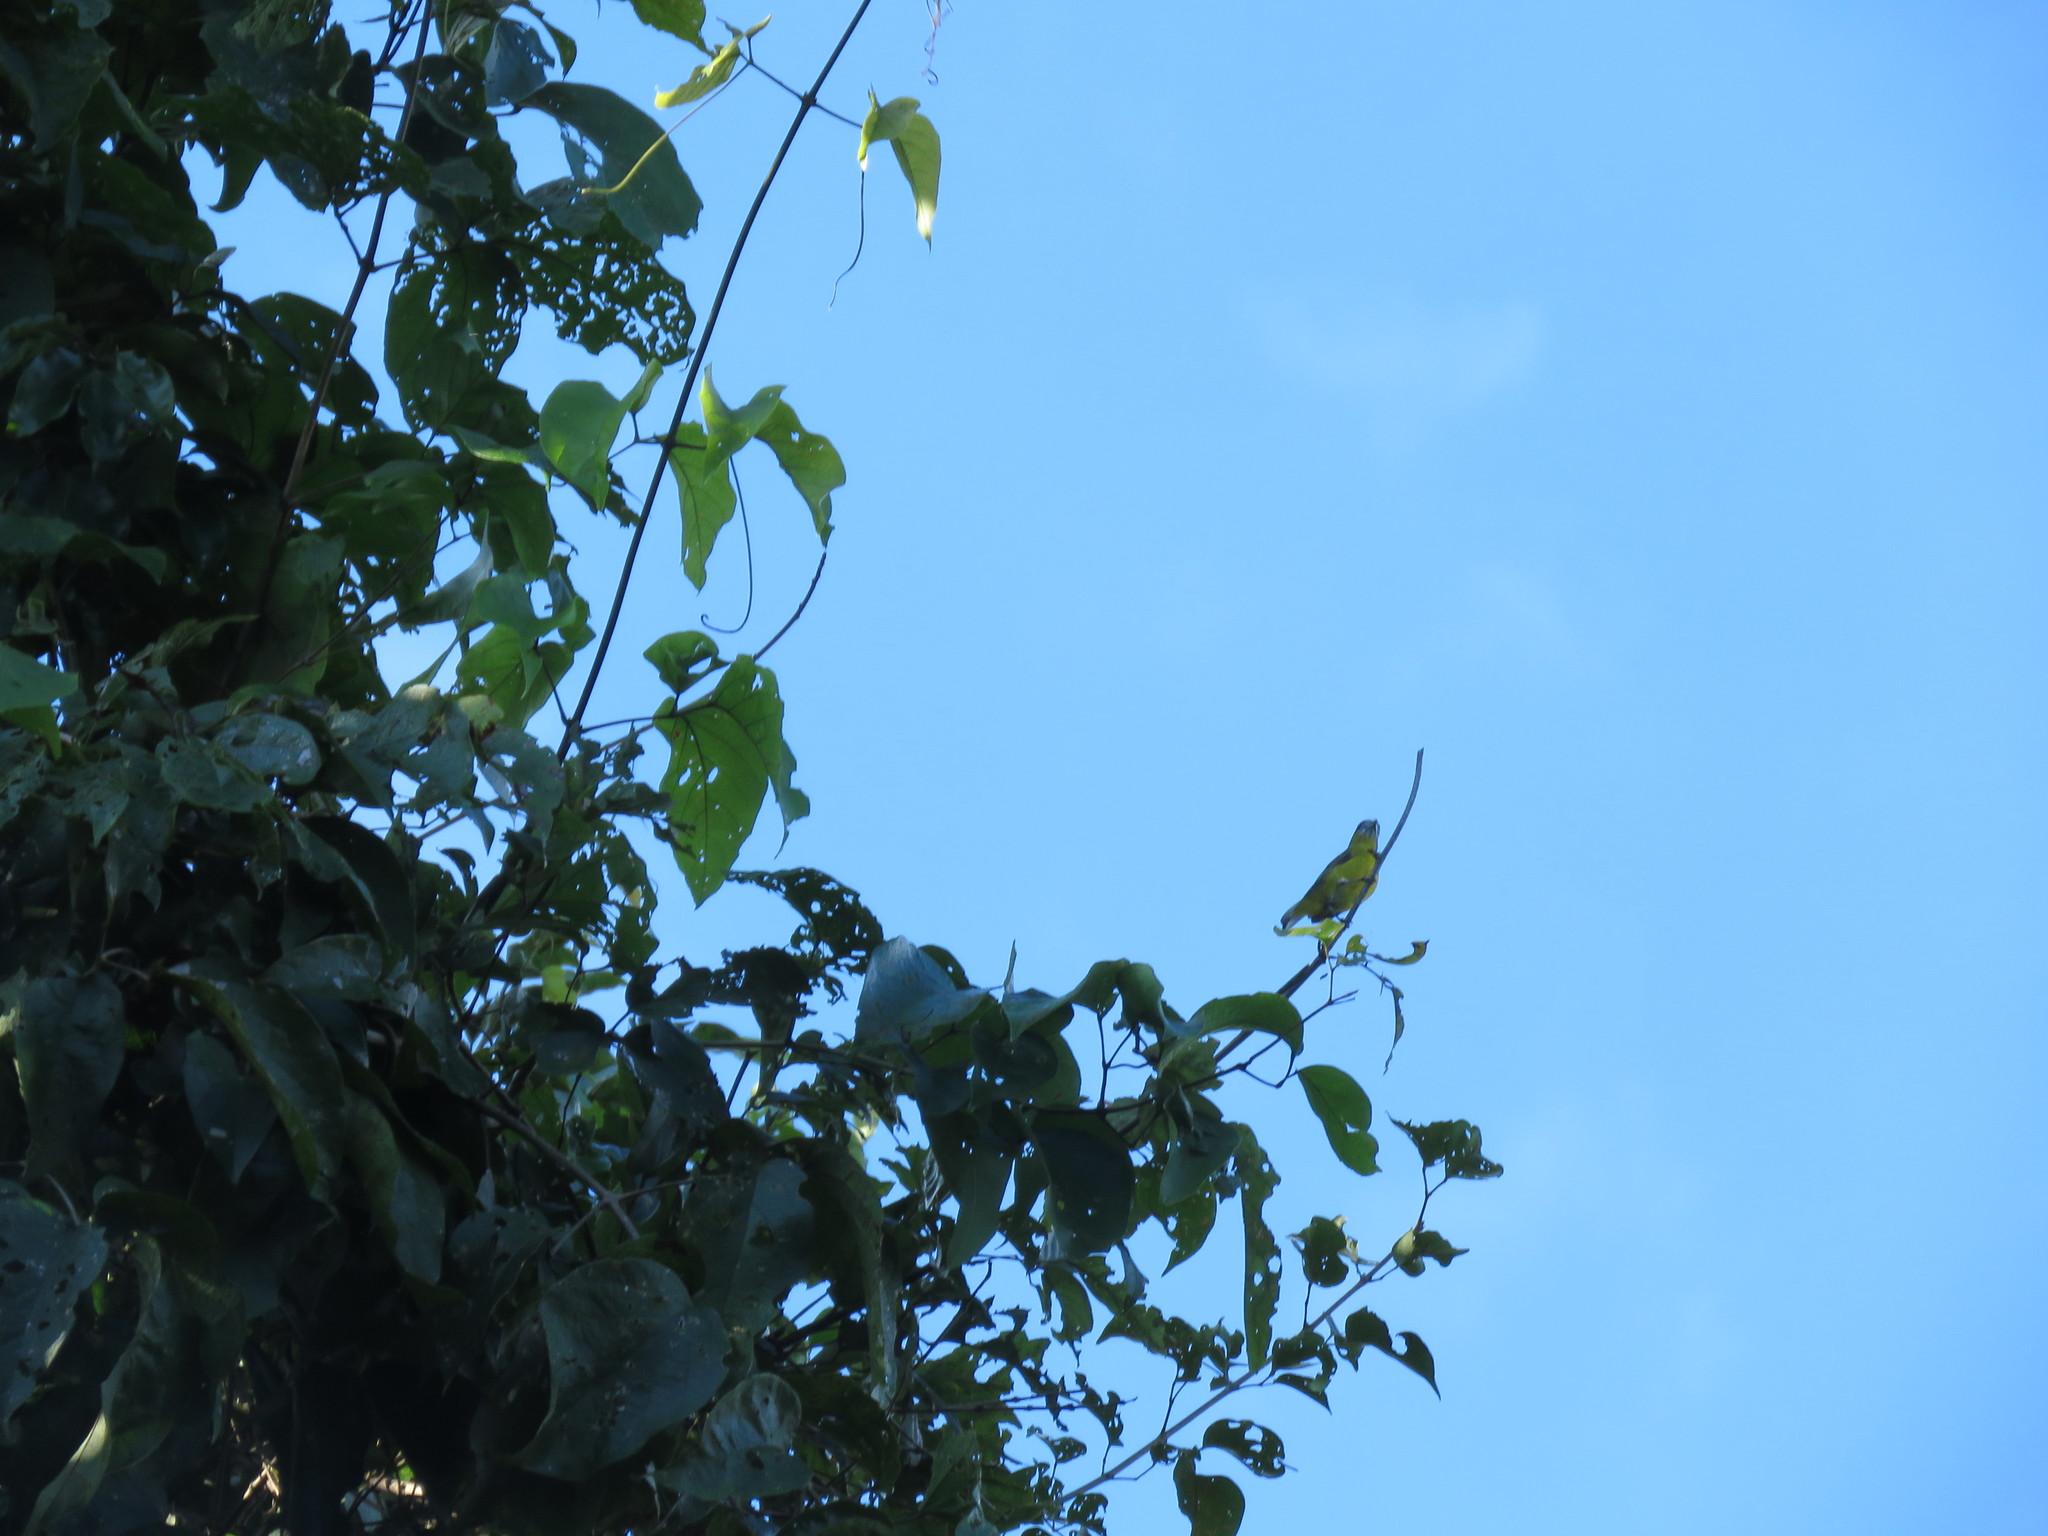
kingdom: Animalia
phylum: Chordata
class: Aves
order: Passeriformes
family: Fringillidae
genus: Euphonia
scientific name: Euphonia chrysopasta
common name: White-lored euphonia
